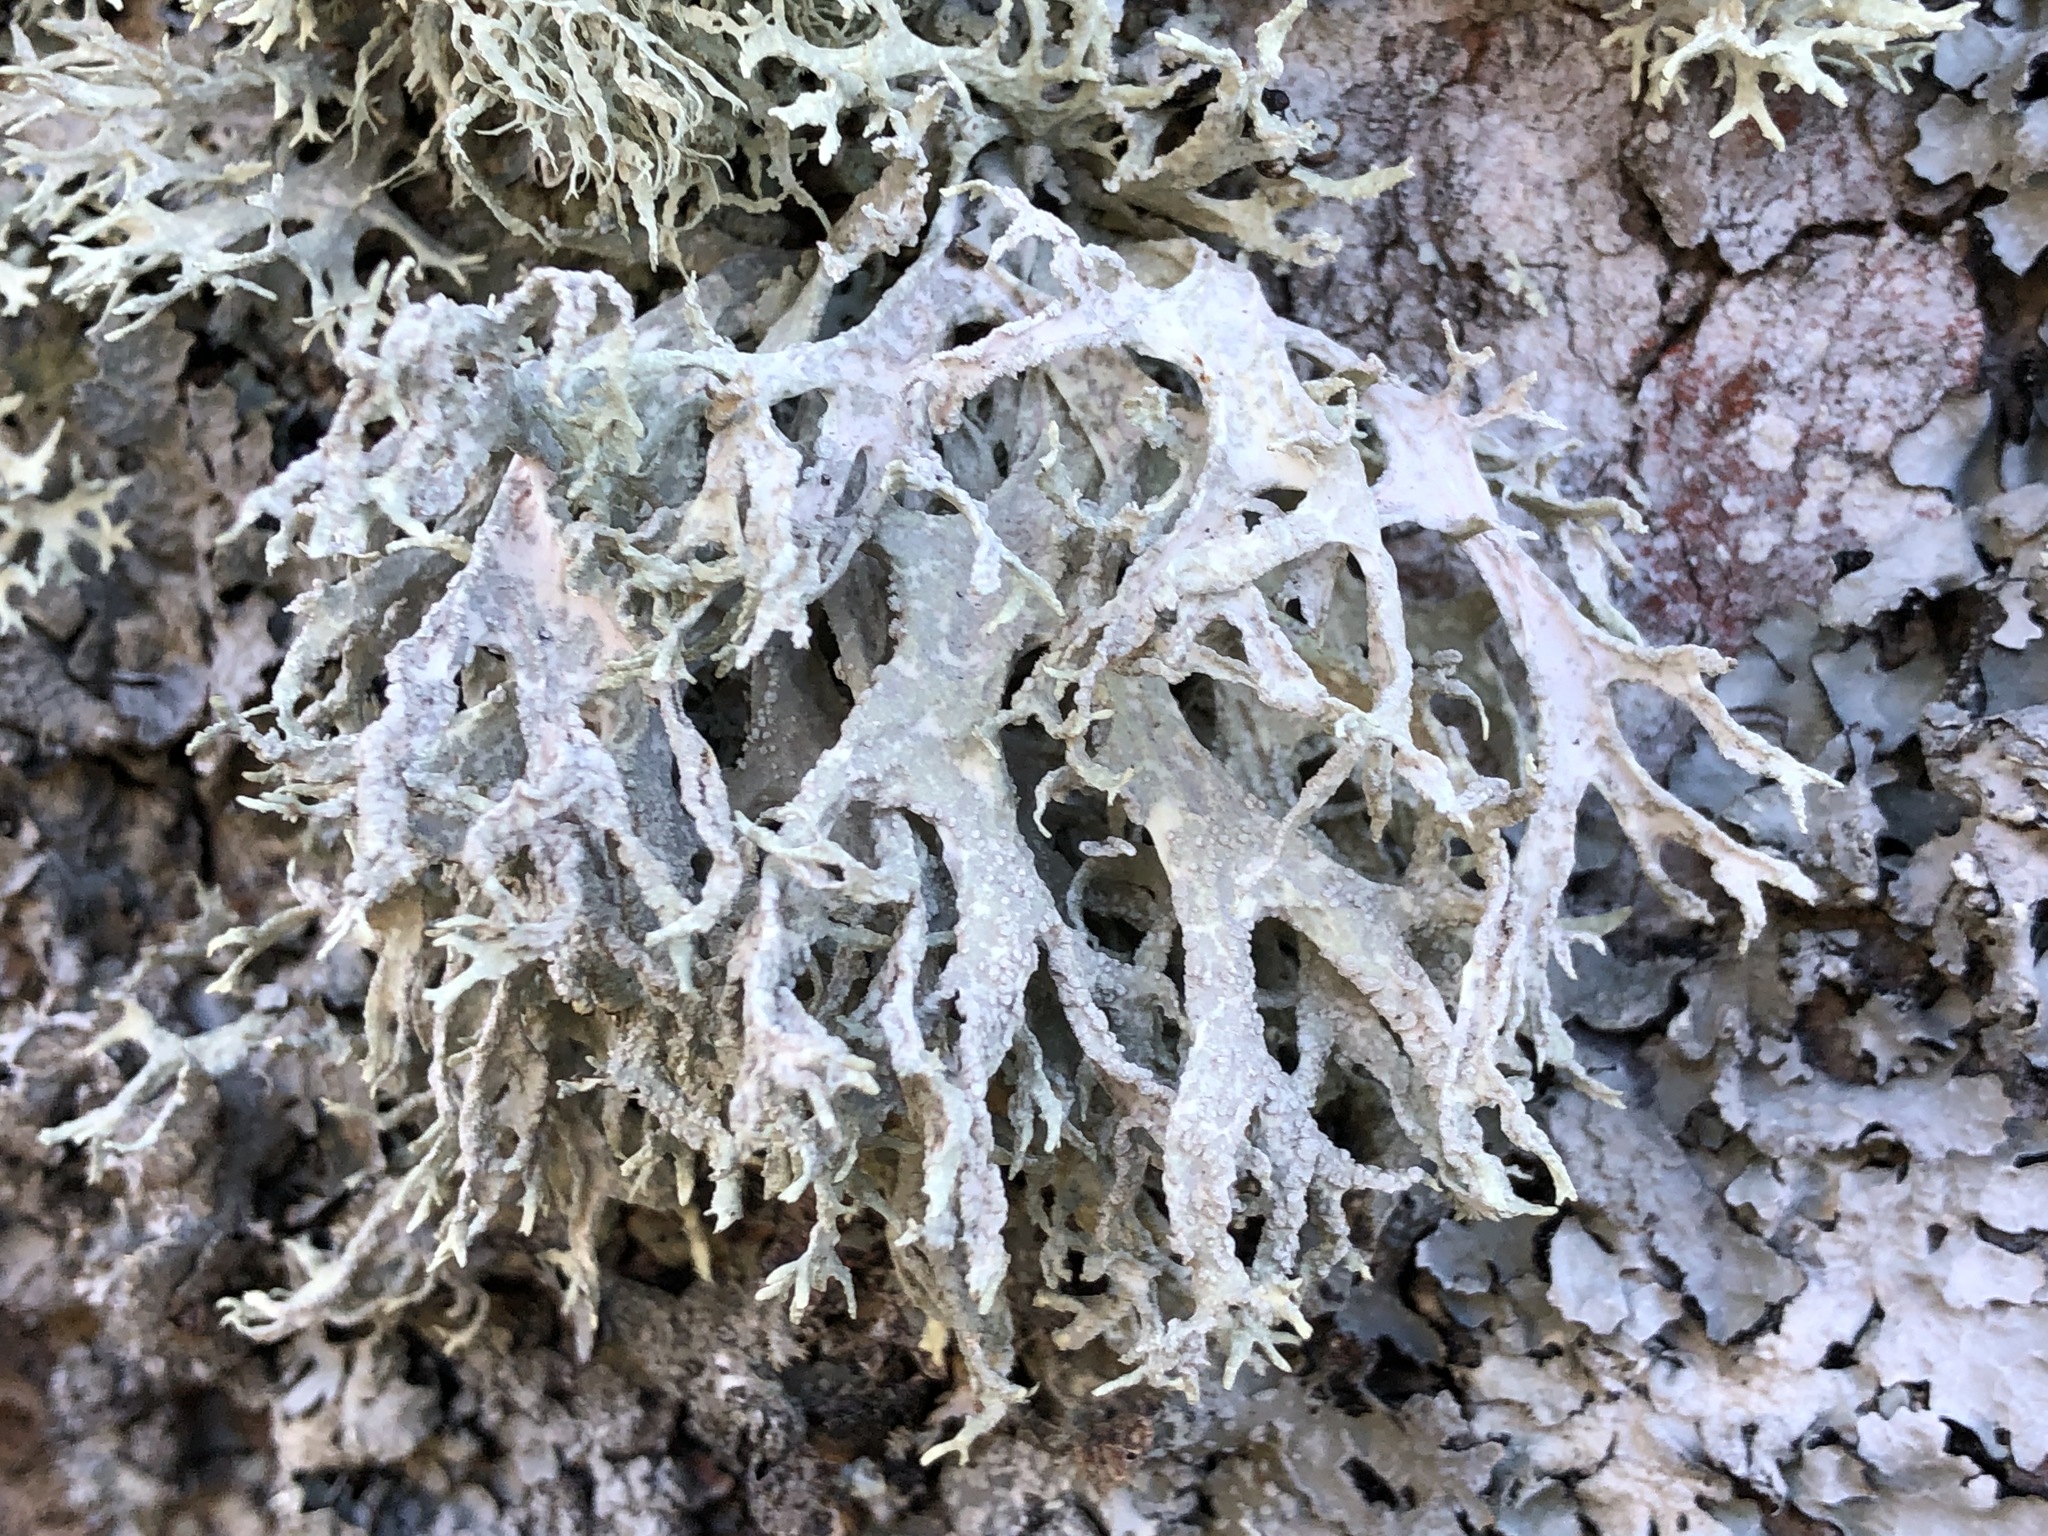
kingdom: Fungi
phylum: Ascomycota
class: Lecanoromycetes
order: Lecanorales
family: Parmeliaceae
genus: Evernia
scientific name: Evernia prunastri
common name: Oak moss
